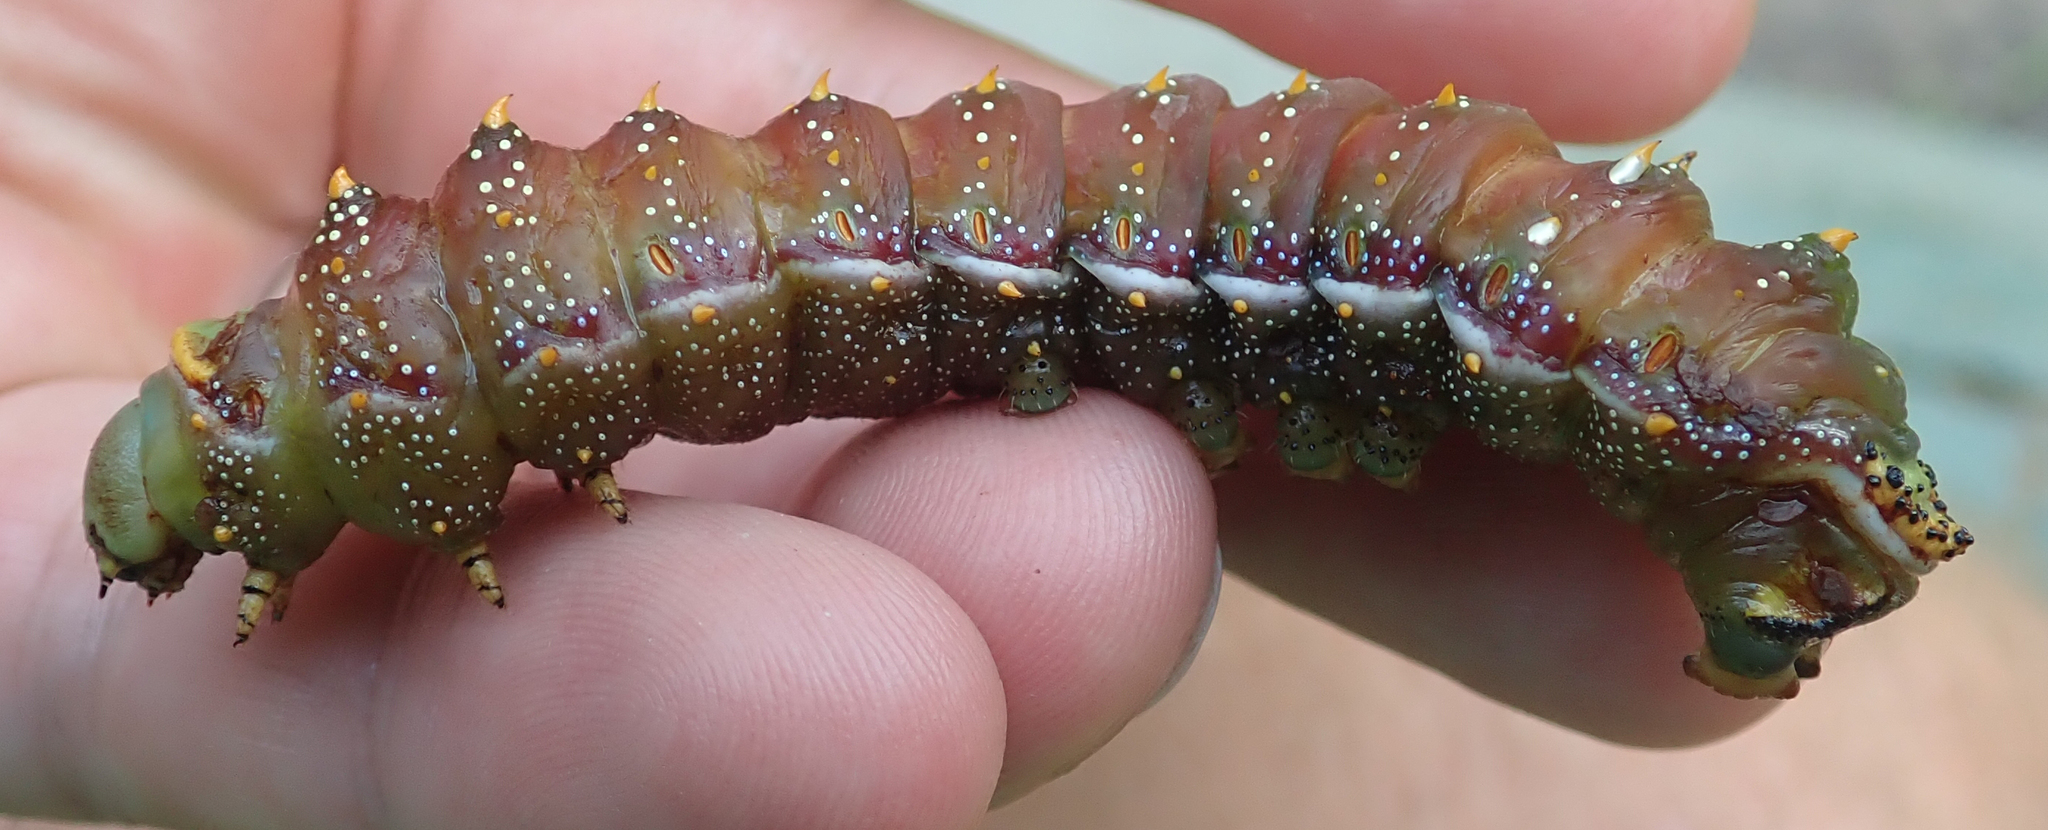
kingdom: Animalia
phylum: Arthropoda
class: Insecta
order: Lepidoptera
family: Saturniidae
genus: Gynanisa
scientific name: Gynanisa maja
